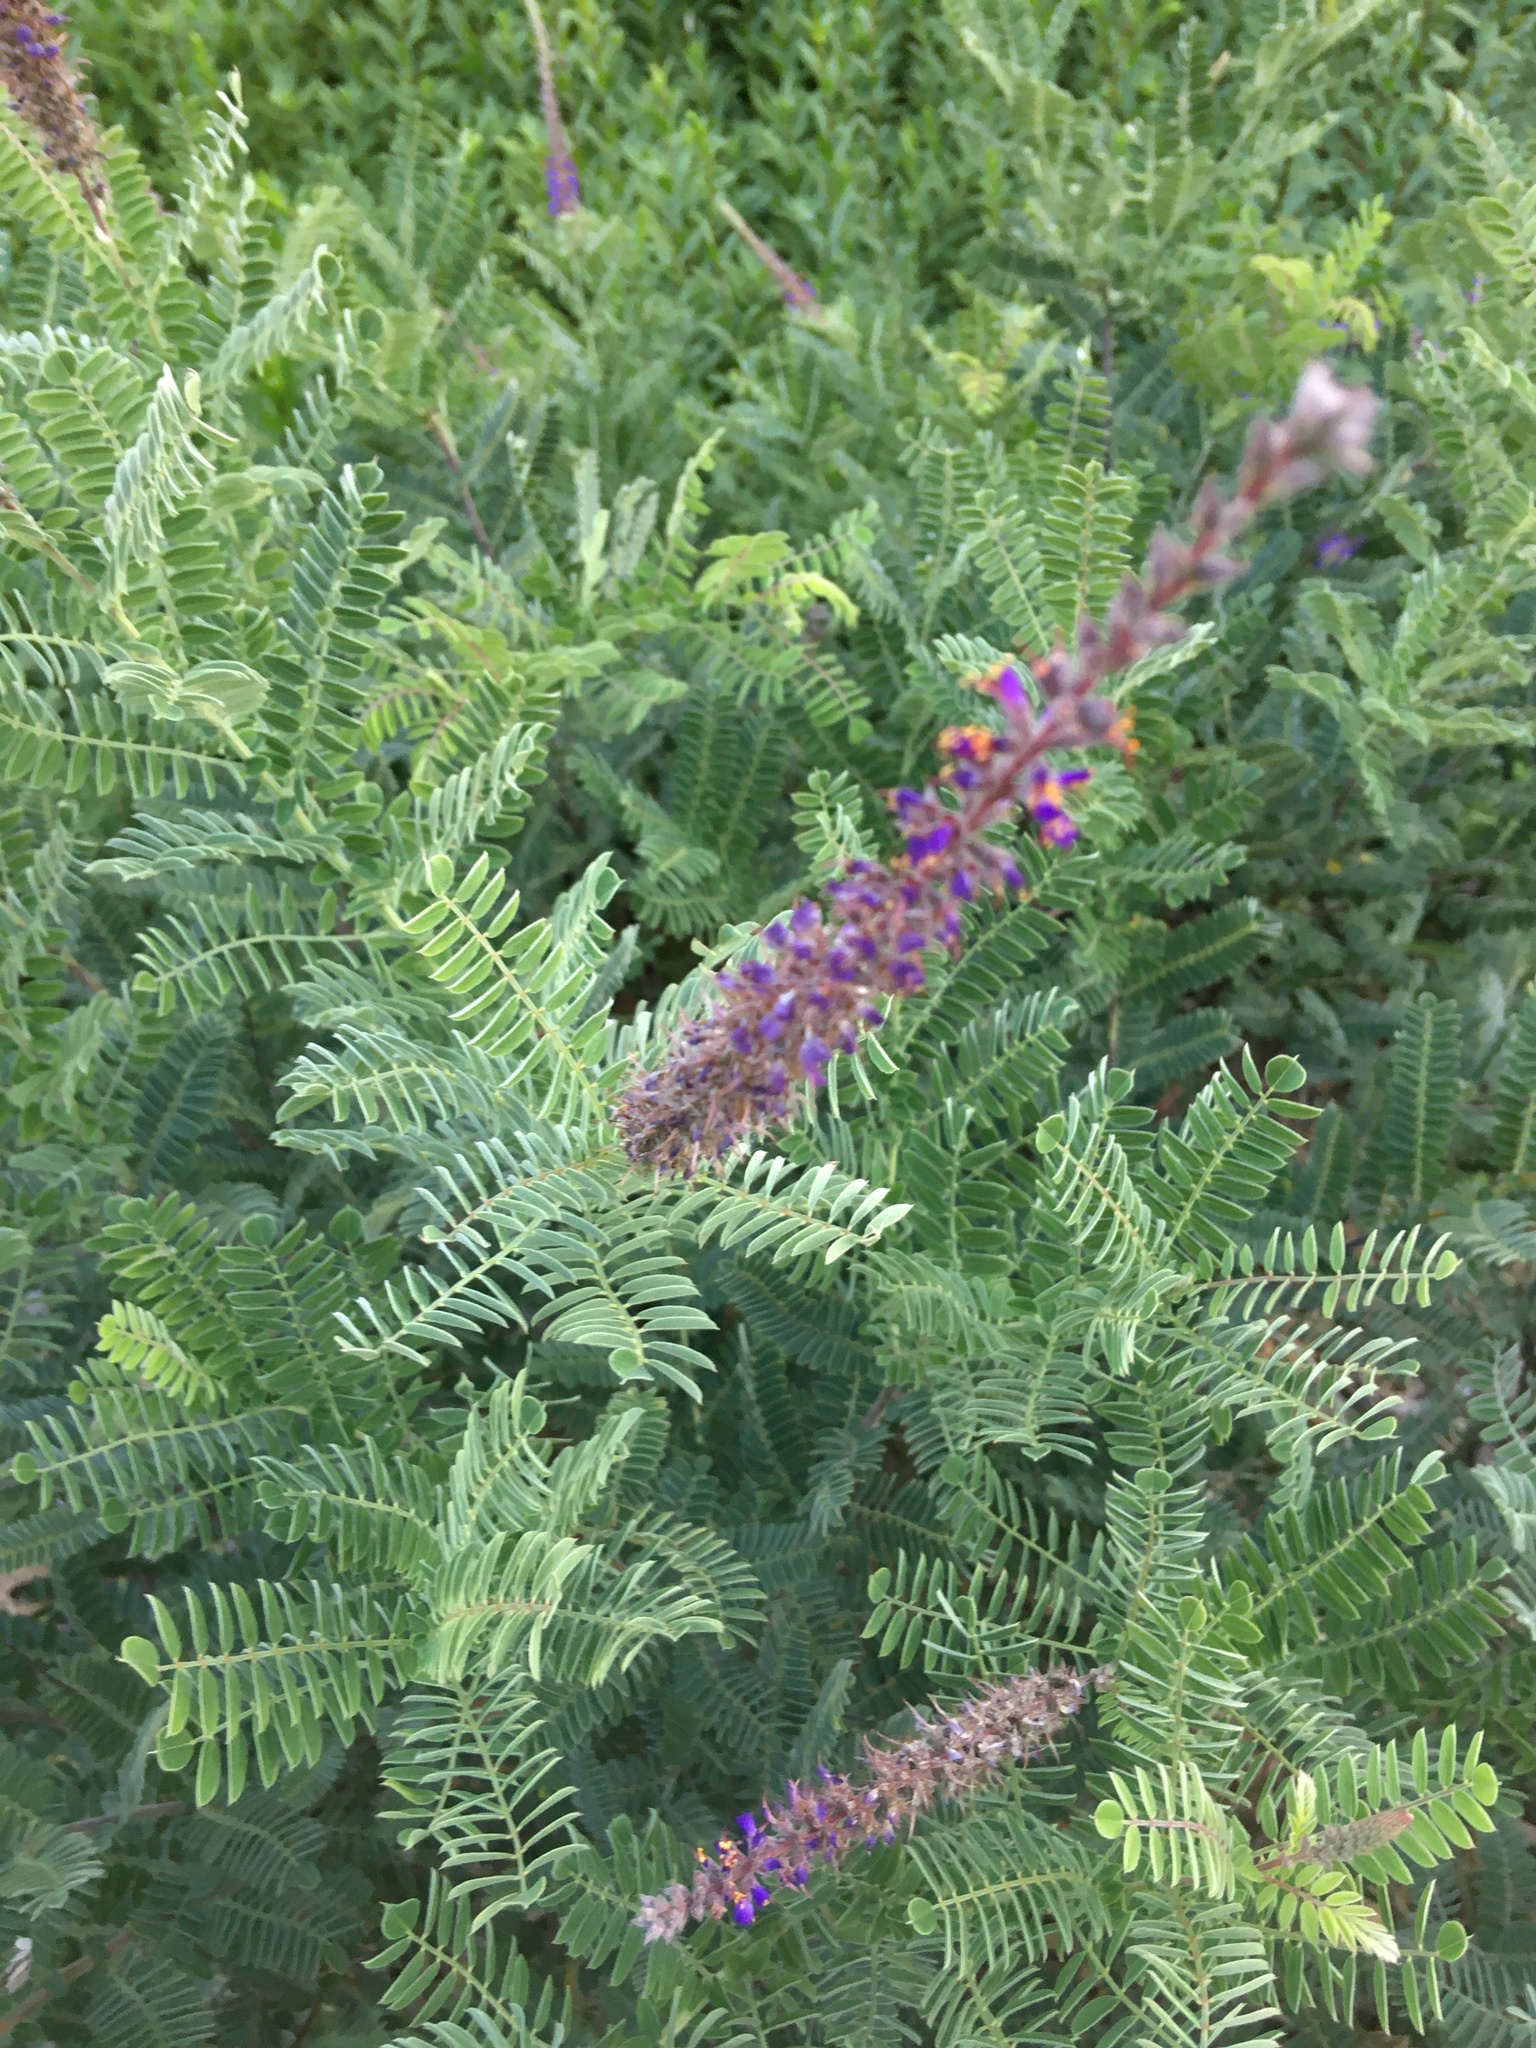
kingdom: Plantae
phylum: Tracheophyta
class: Magnoliopsida
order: Fabales
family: Fabaceae
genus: Amorpha
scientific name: Amorpha canescens
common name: Leadplant
